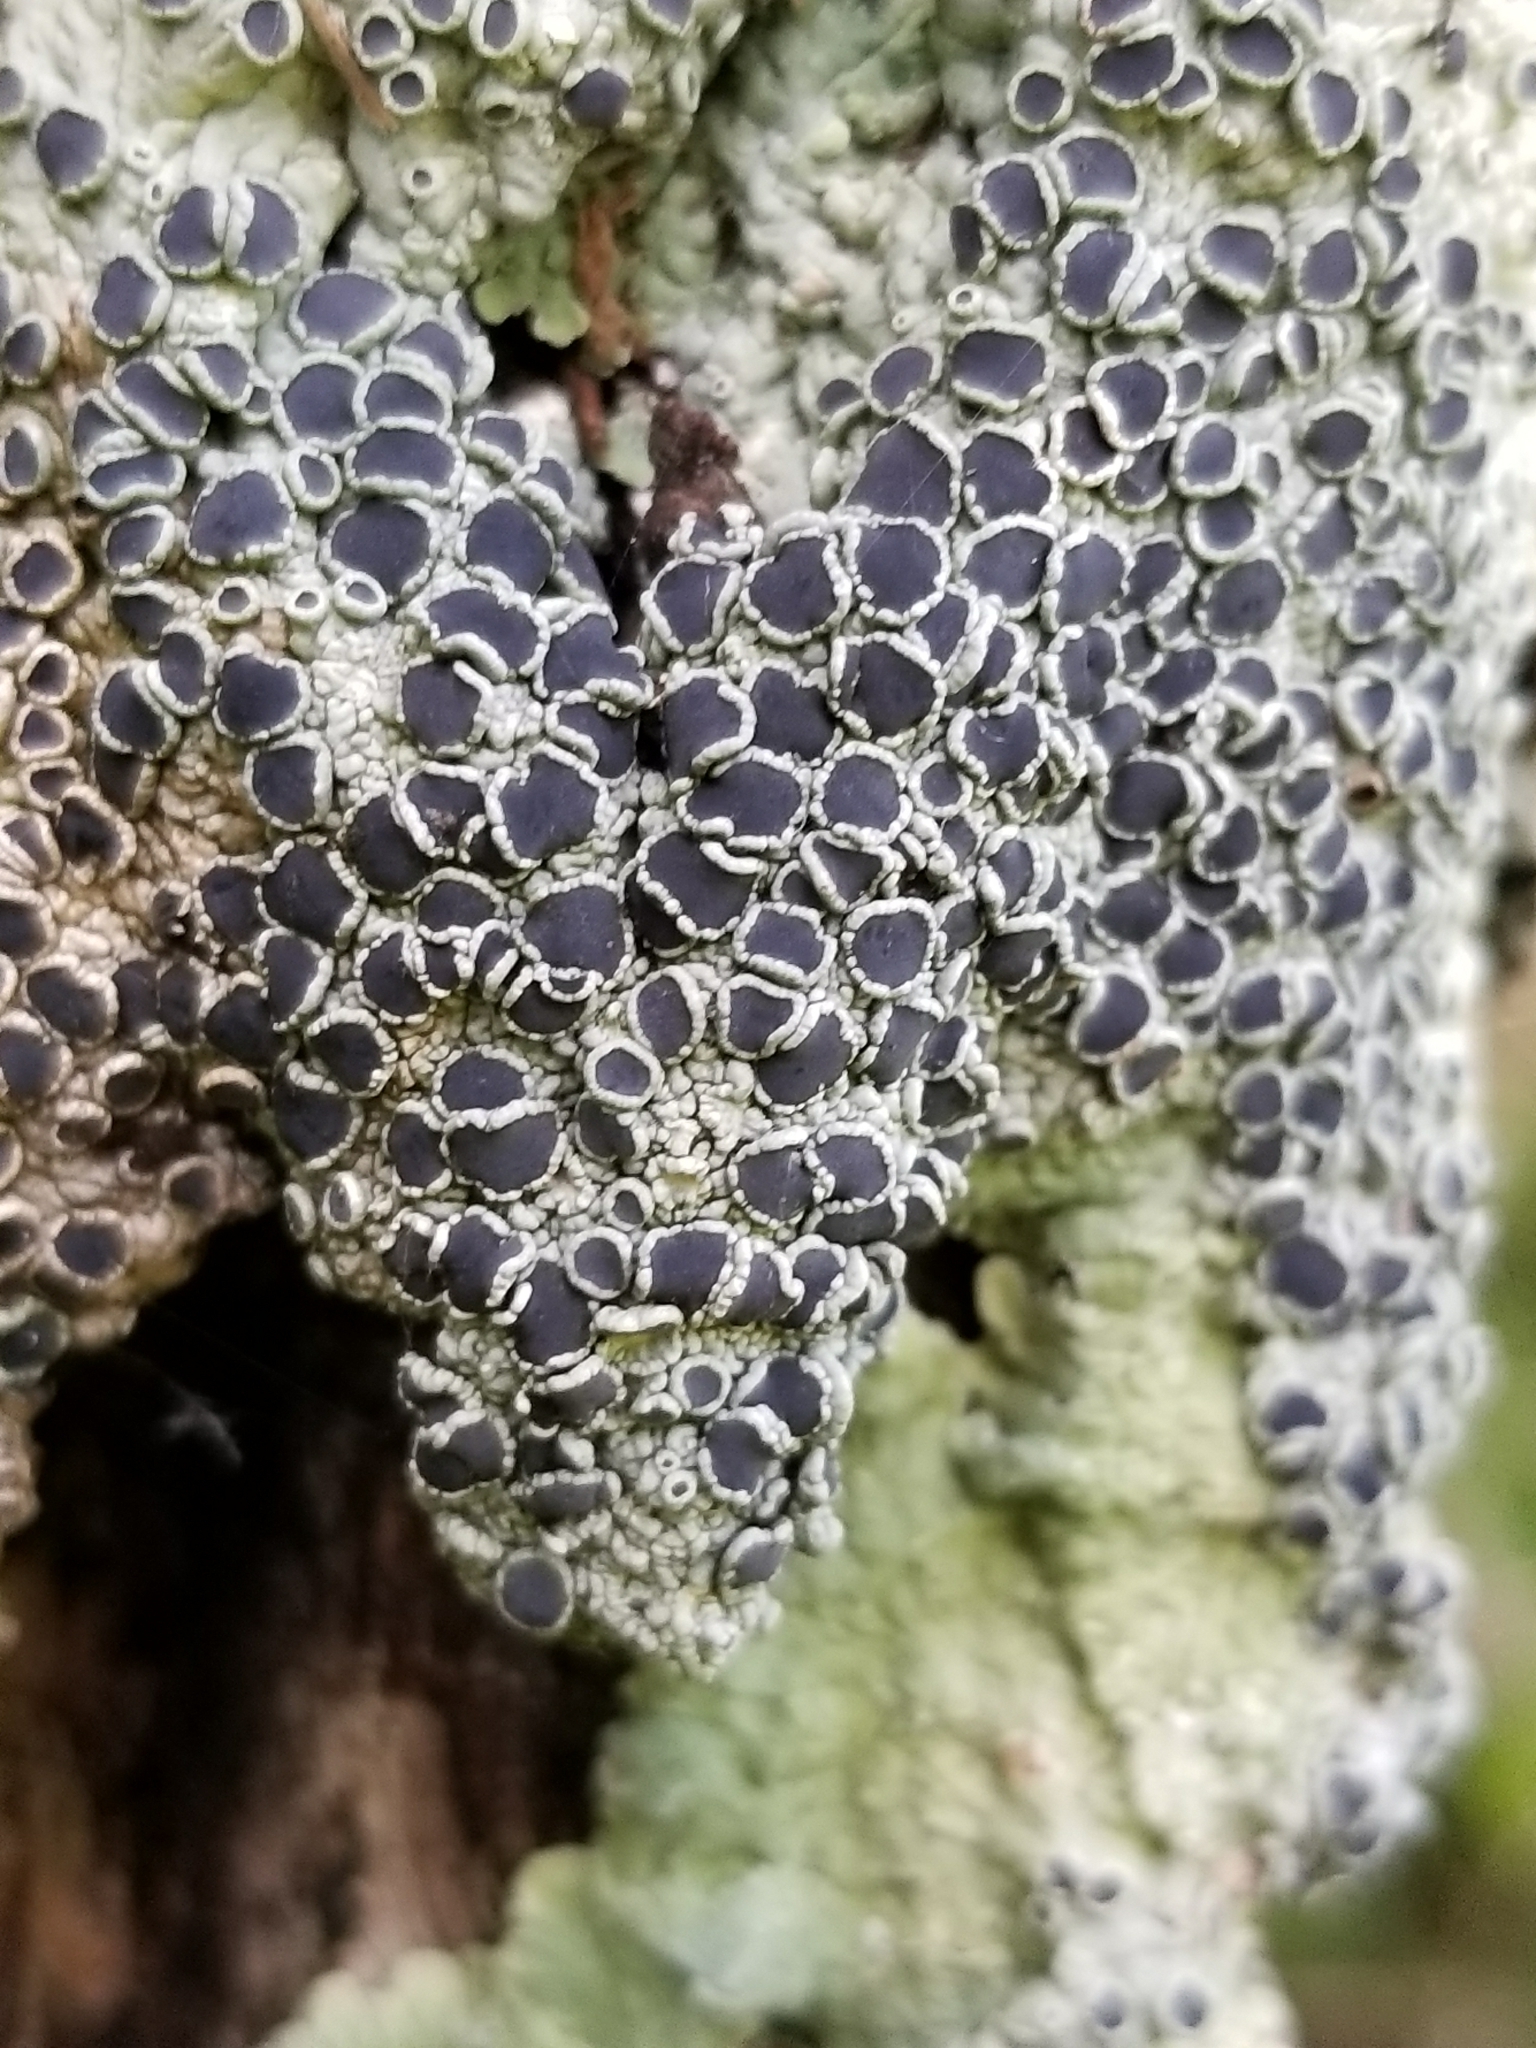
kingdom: Fungi
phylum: Ascomycota
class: Lecanoromycetes
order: Teloschistales
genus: Dirinaria
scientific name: Dirinaria confusa
